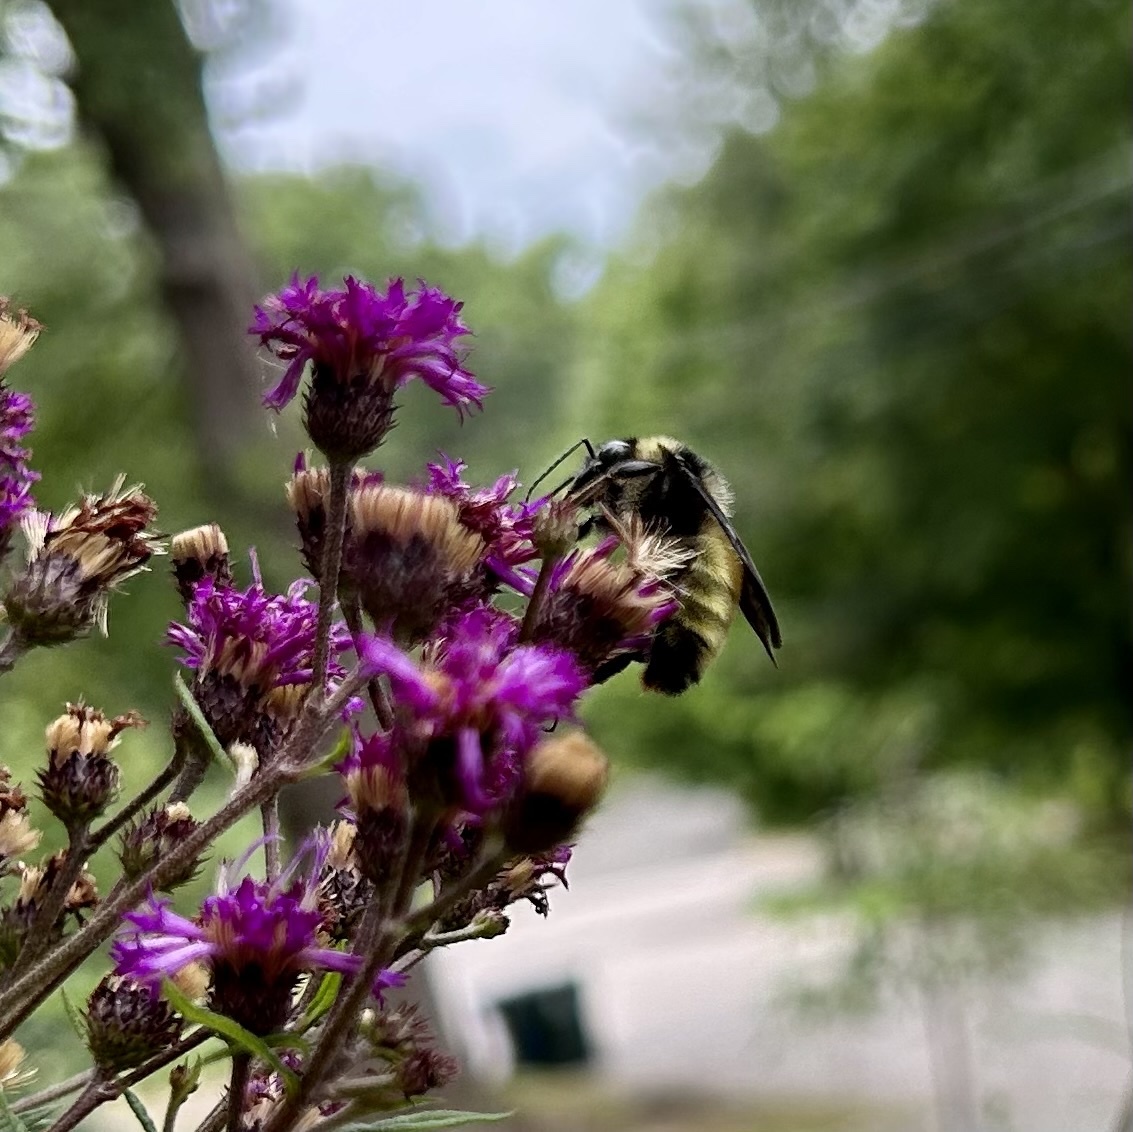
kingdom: Animalia
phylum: Arthropoda
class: Insecta
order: Hymenoptera
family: Apidae
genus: Bombus
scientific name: Bombus pensylvanicus
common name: Bumble bee
